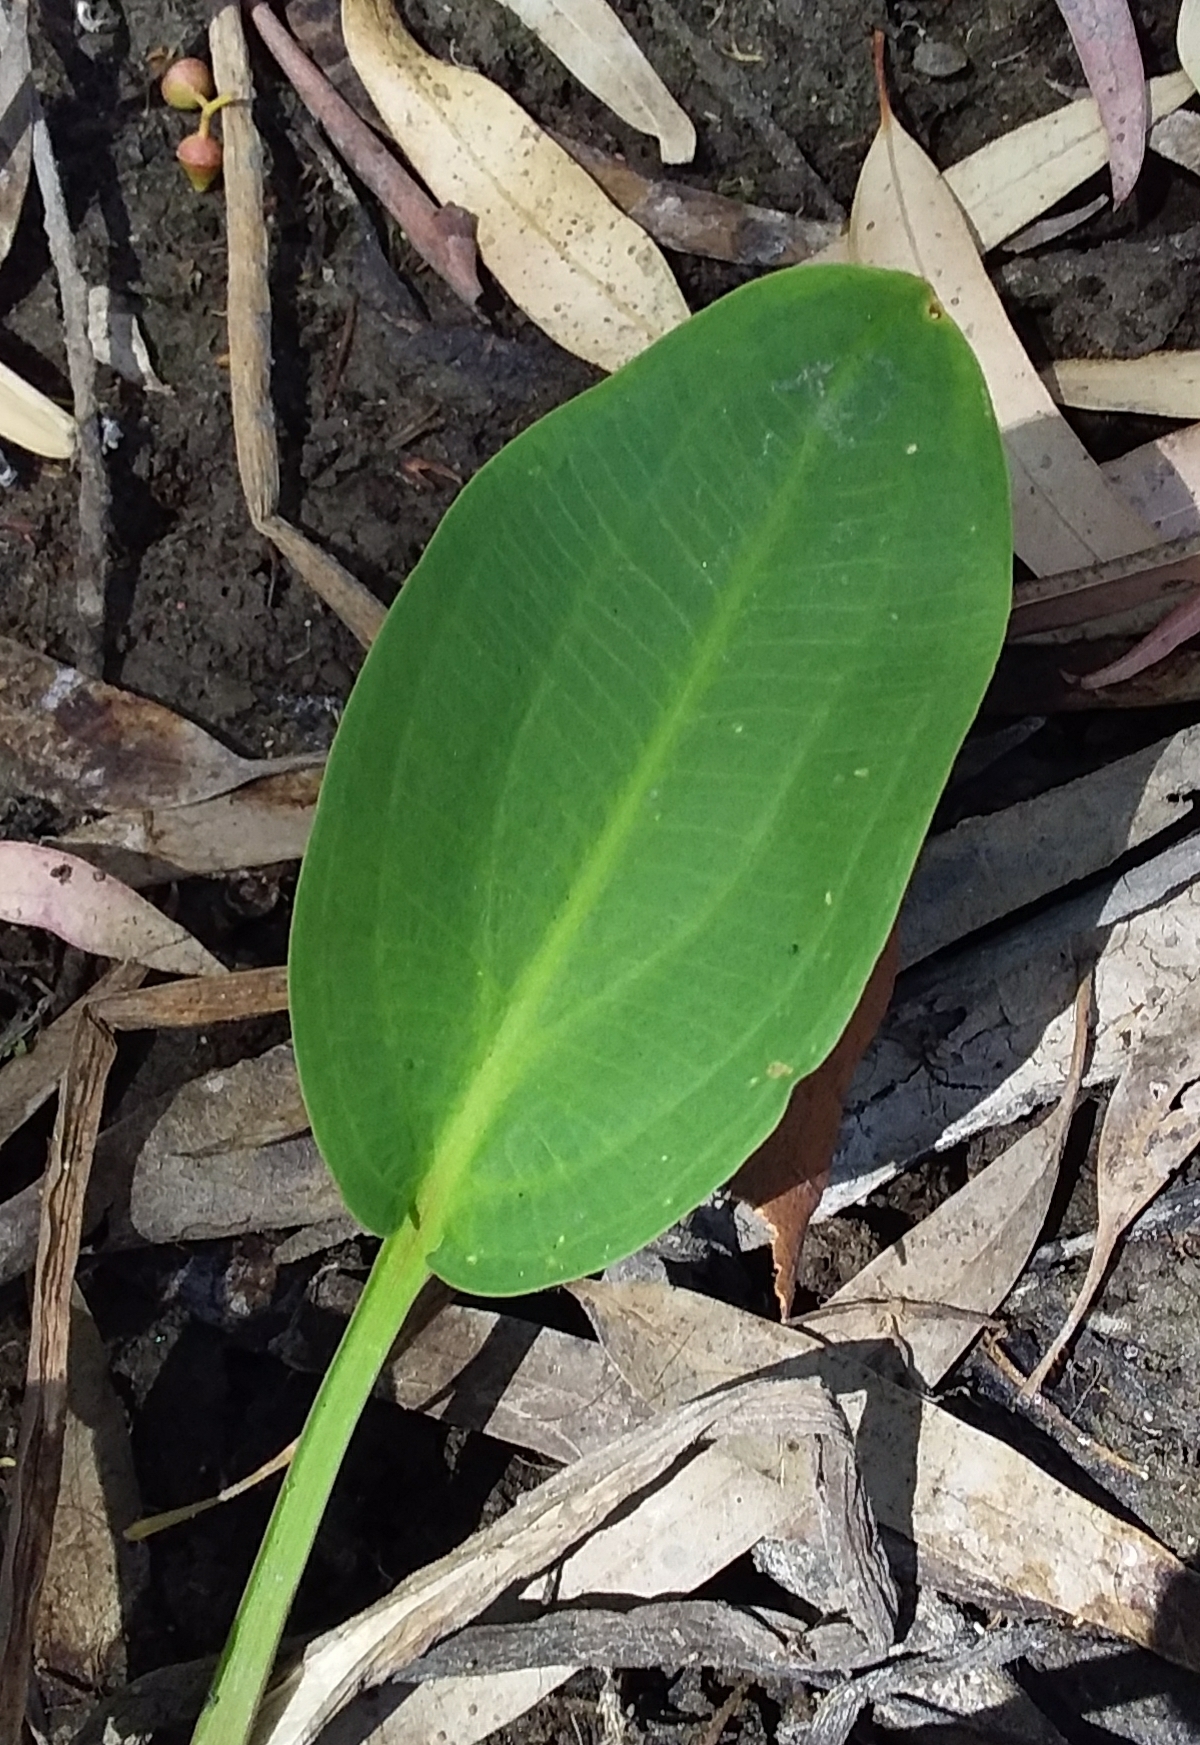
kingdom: Plantae
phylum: Tracheophyta
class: Liliopsida
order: Alismatales
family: Alismataceae
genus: Alisma
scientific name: Alisma plantago-aquatica
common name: Water-plantain
